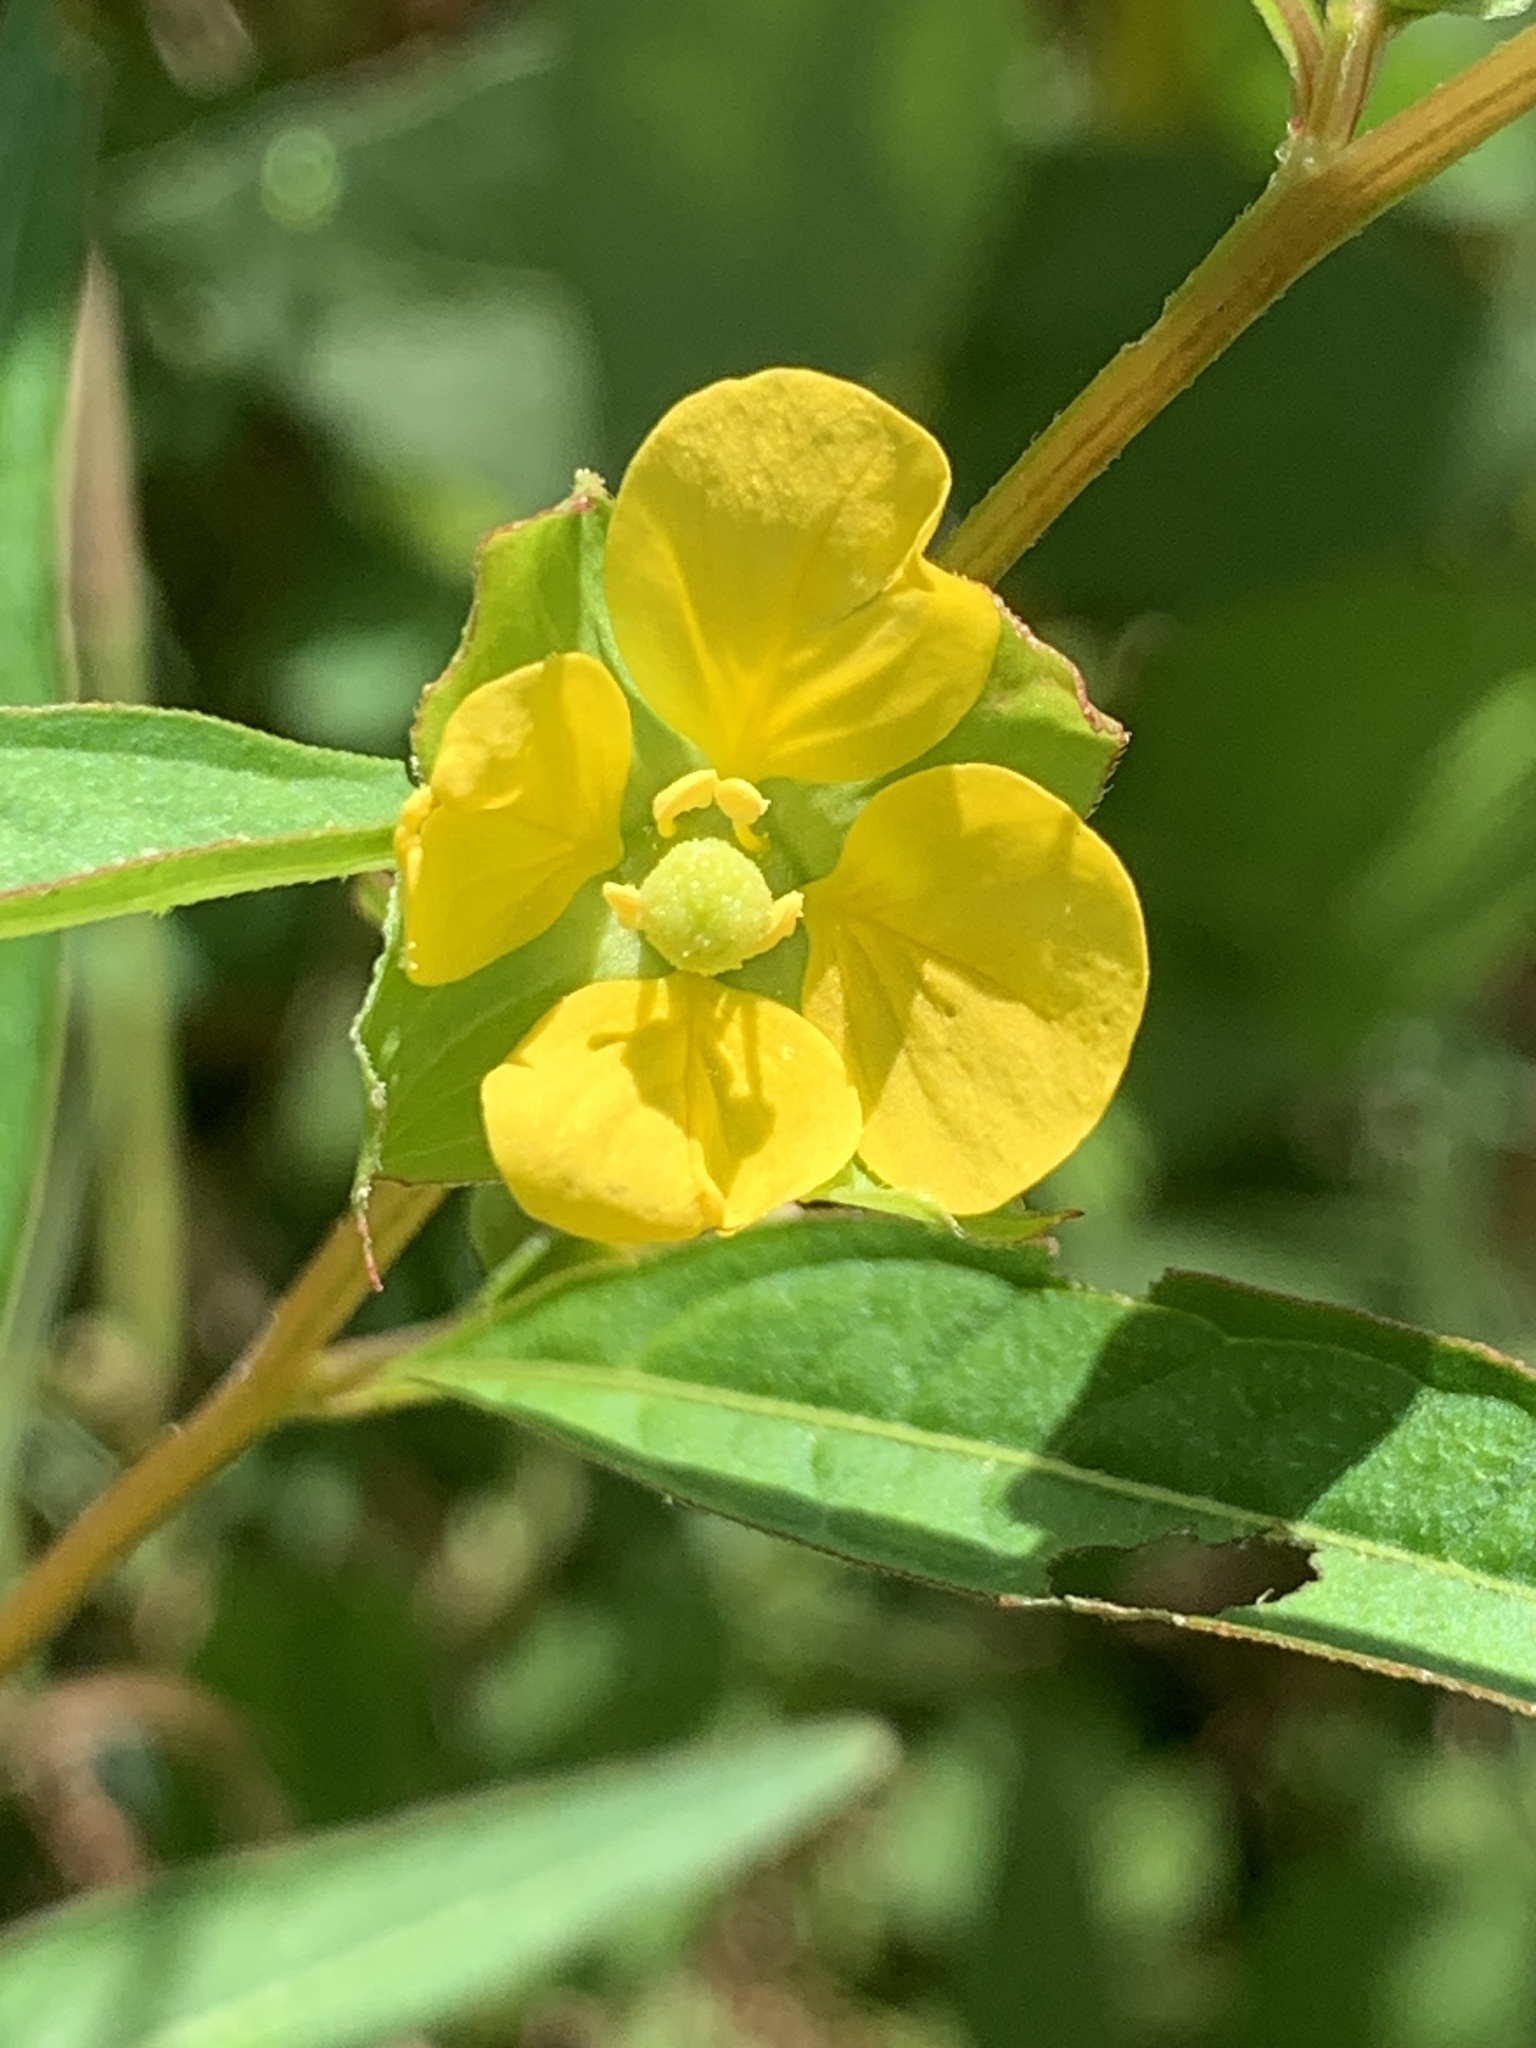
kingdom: Plantae
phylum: Tracheophyta
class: Magnoliopsida
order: Myrtales
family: Onagraceae
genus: Ludwigia
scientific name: Ludwigia alternifolia
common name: Rattlebox
